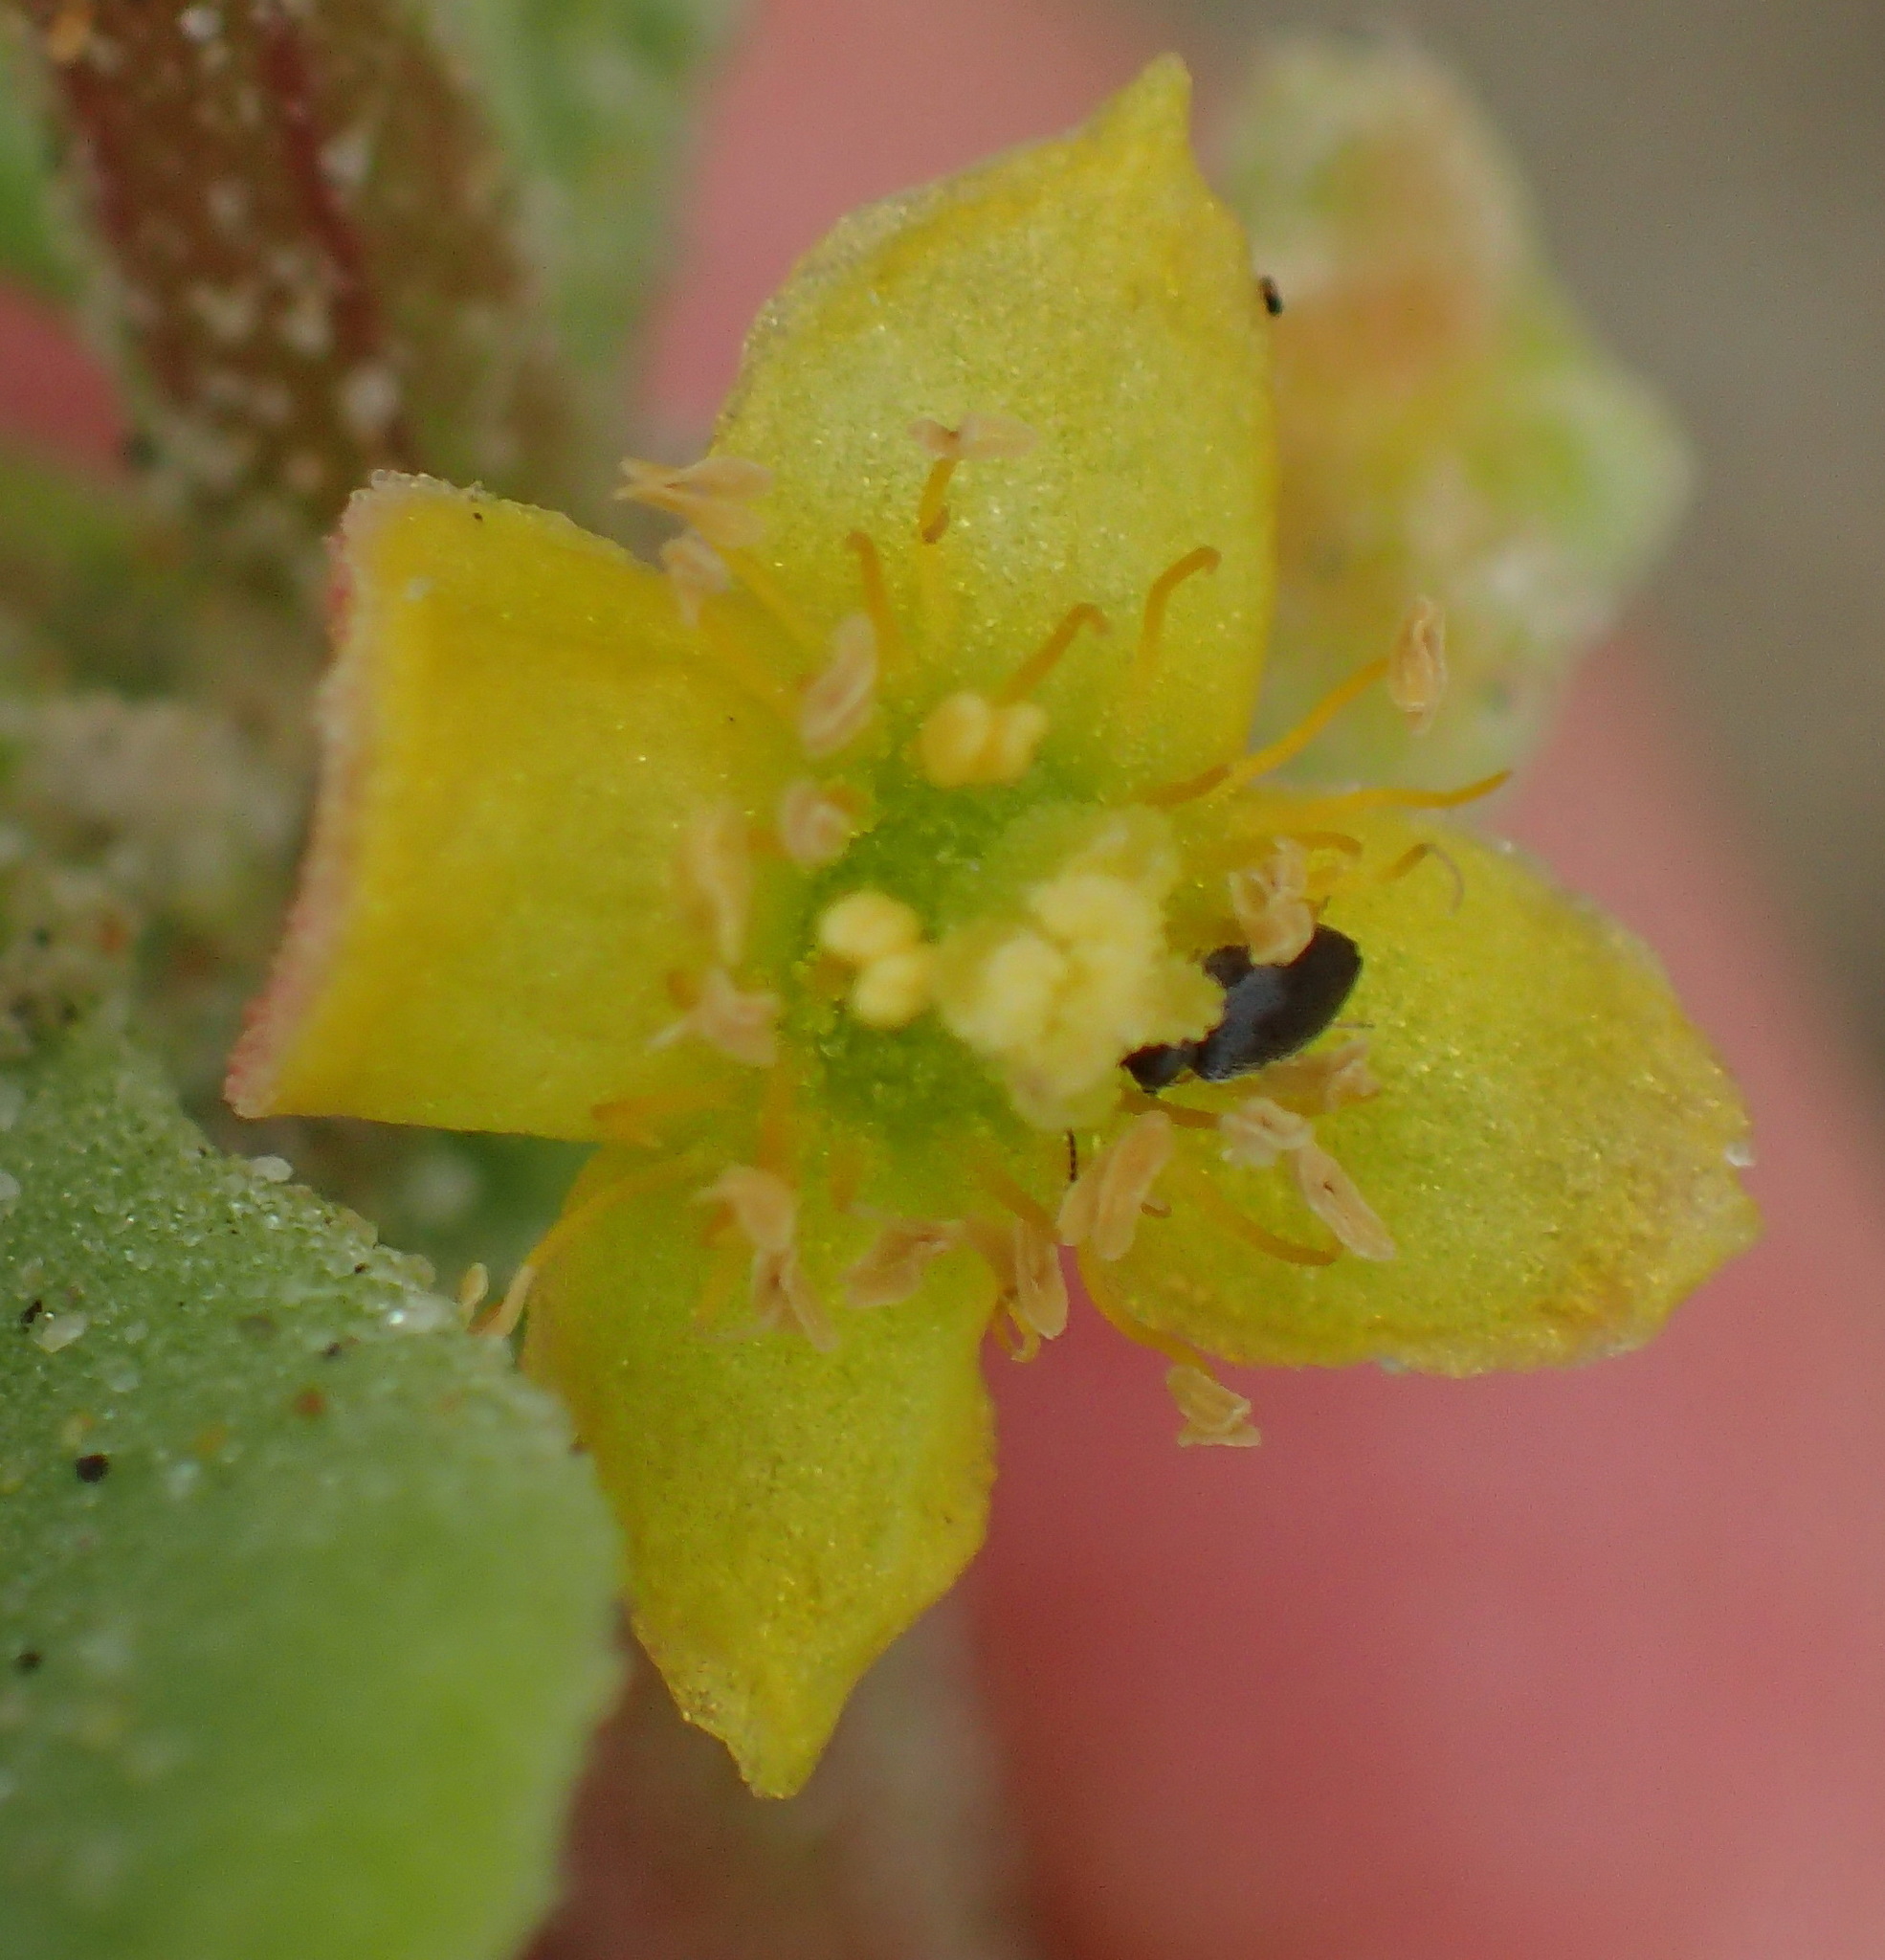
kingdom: Plantae
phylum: Tracheophyta
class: Magnoliopsida
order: Caryophyllales
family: Aizoaceae
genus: Tetragonia
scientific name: Tetragonia decumbens
